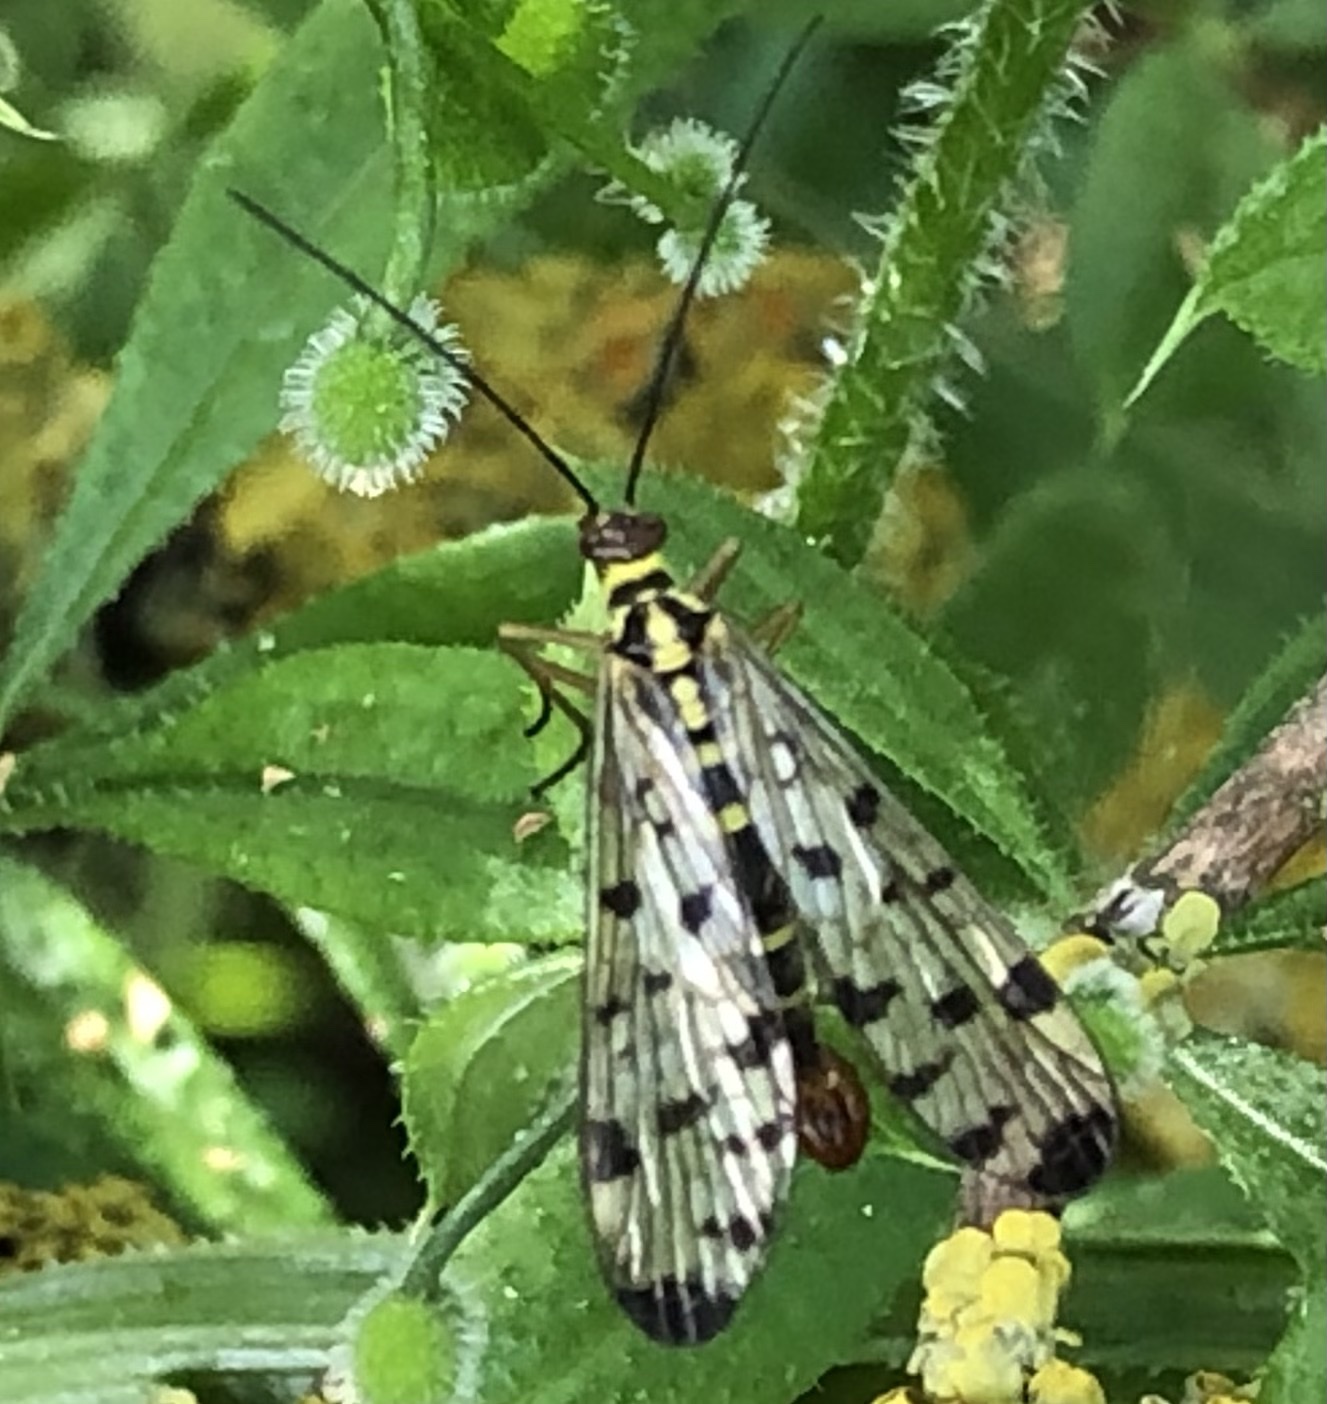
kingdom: Animalia
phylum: Arthropoda
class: Insecta
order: Mecoptera
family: Panorpidae
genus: Panorpa
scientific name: Panorpa germanica
